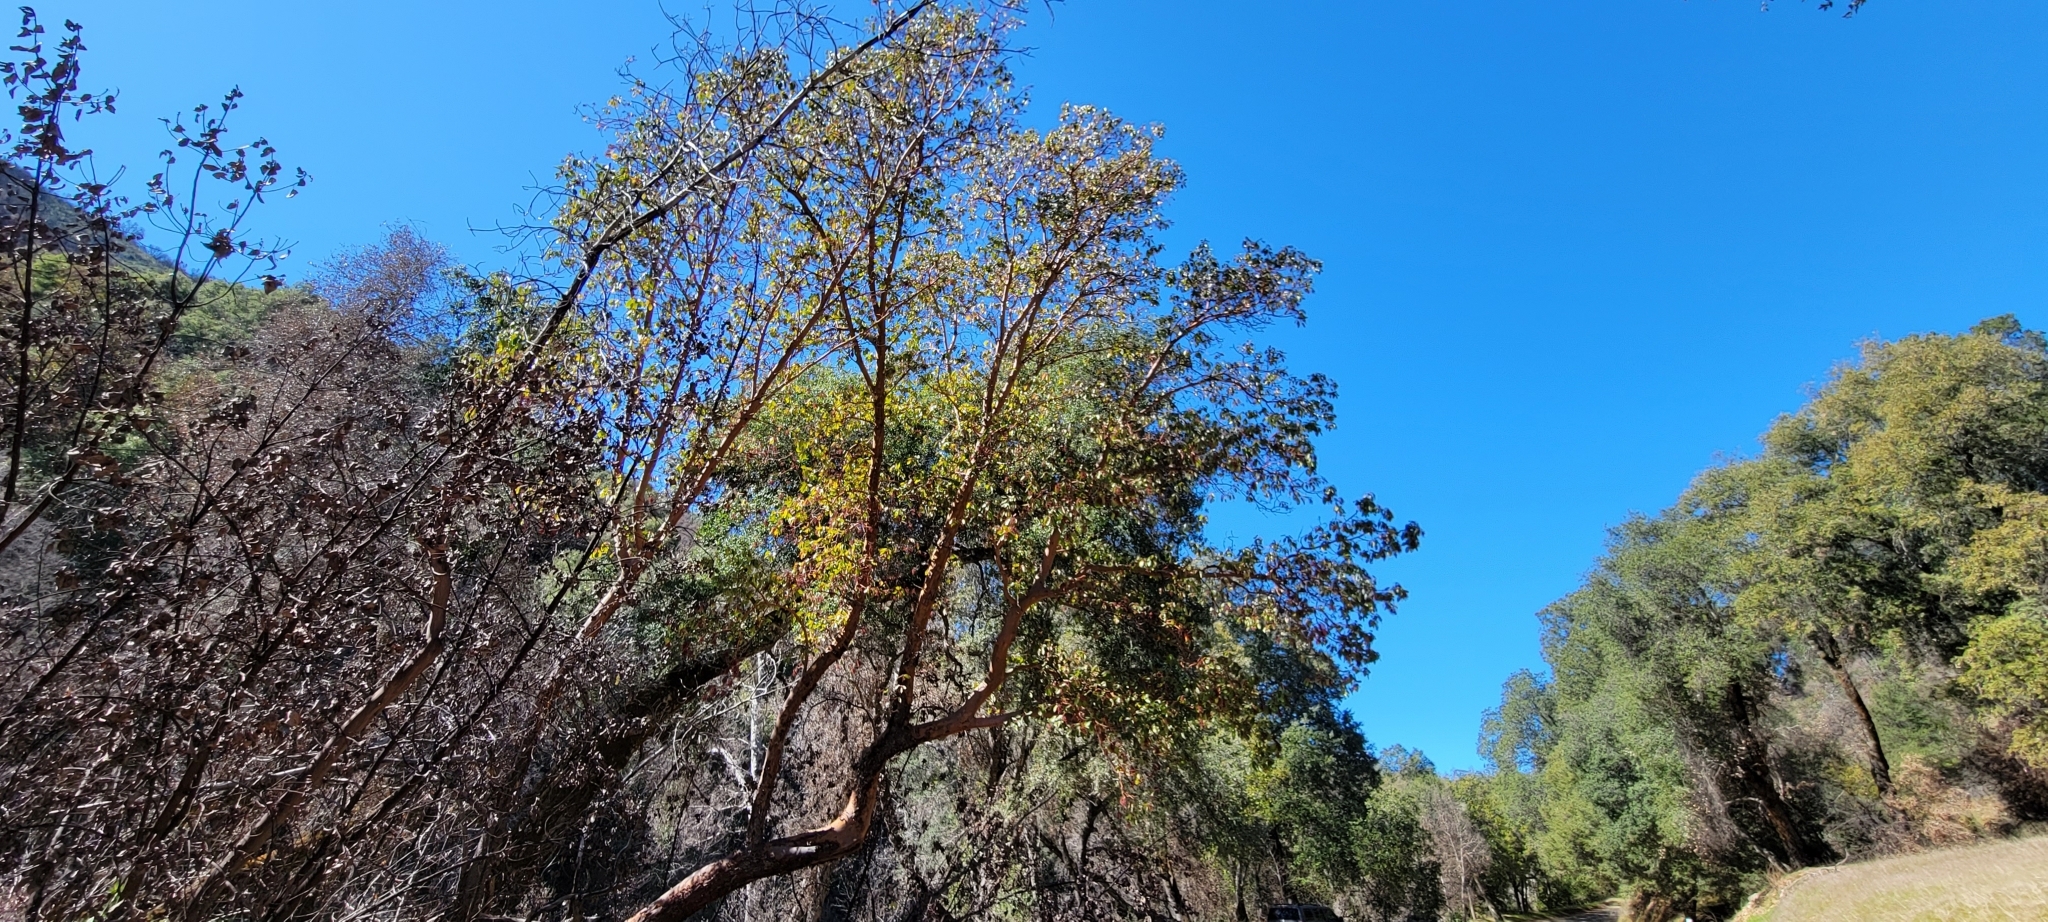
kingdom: Plantae
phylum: Tracheophyta
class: Magnoliopsida
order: Ericales
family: Ericaceae
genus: Arbutus
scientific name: Arbutus menziesii
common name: Pacific madrone
